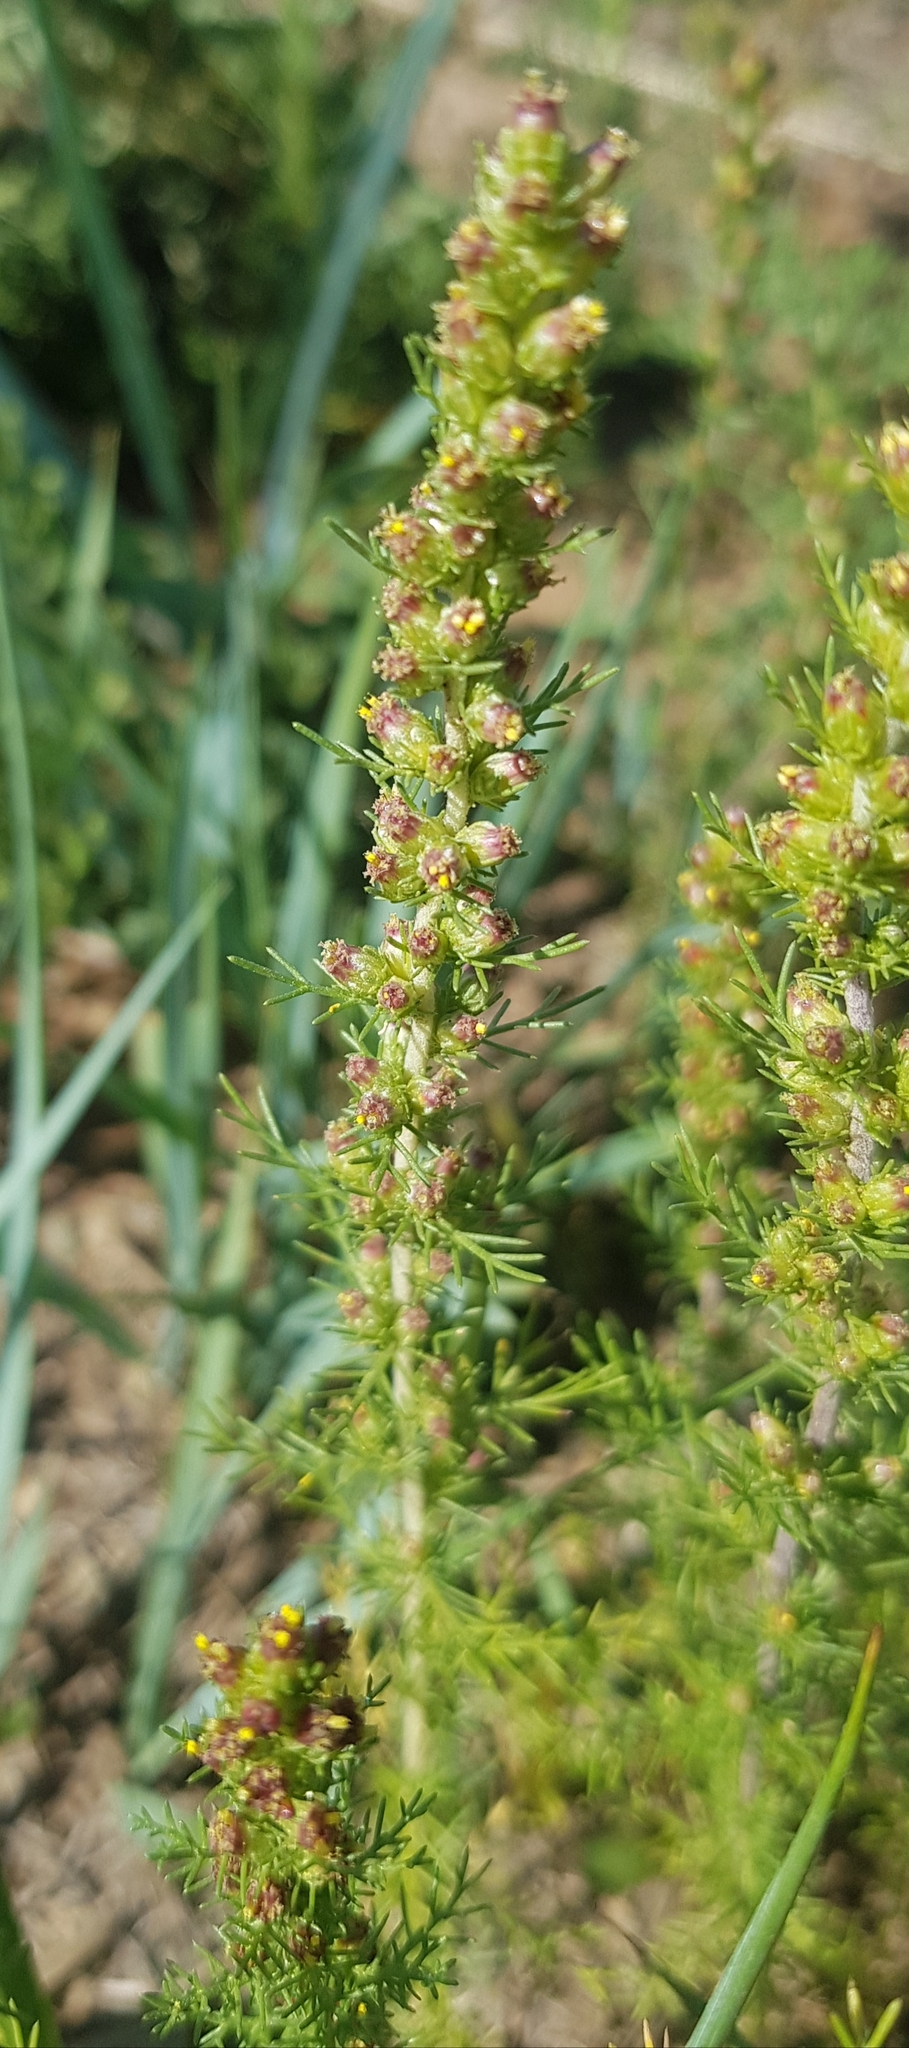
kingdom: Plantae
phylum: Tracheophyta
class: Magnoliopsida
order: Asterales
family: Asteraceae
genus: Neopallasia
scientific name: Neopallasia pectinata
